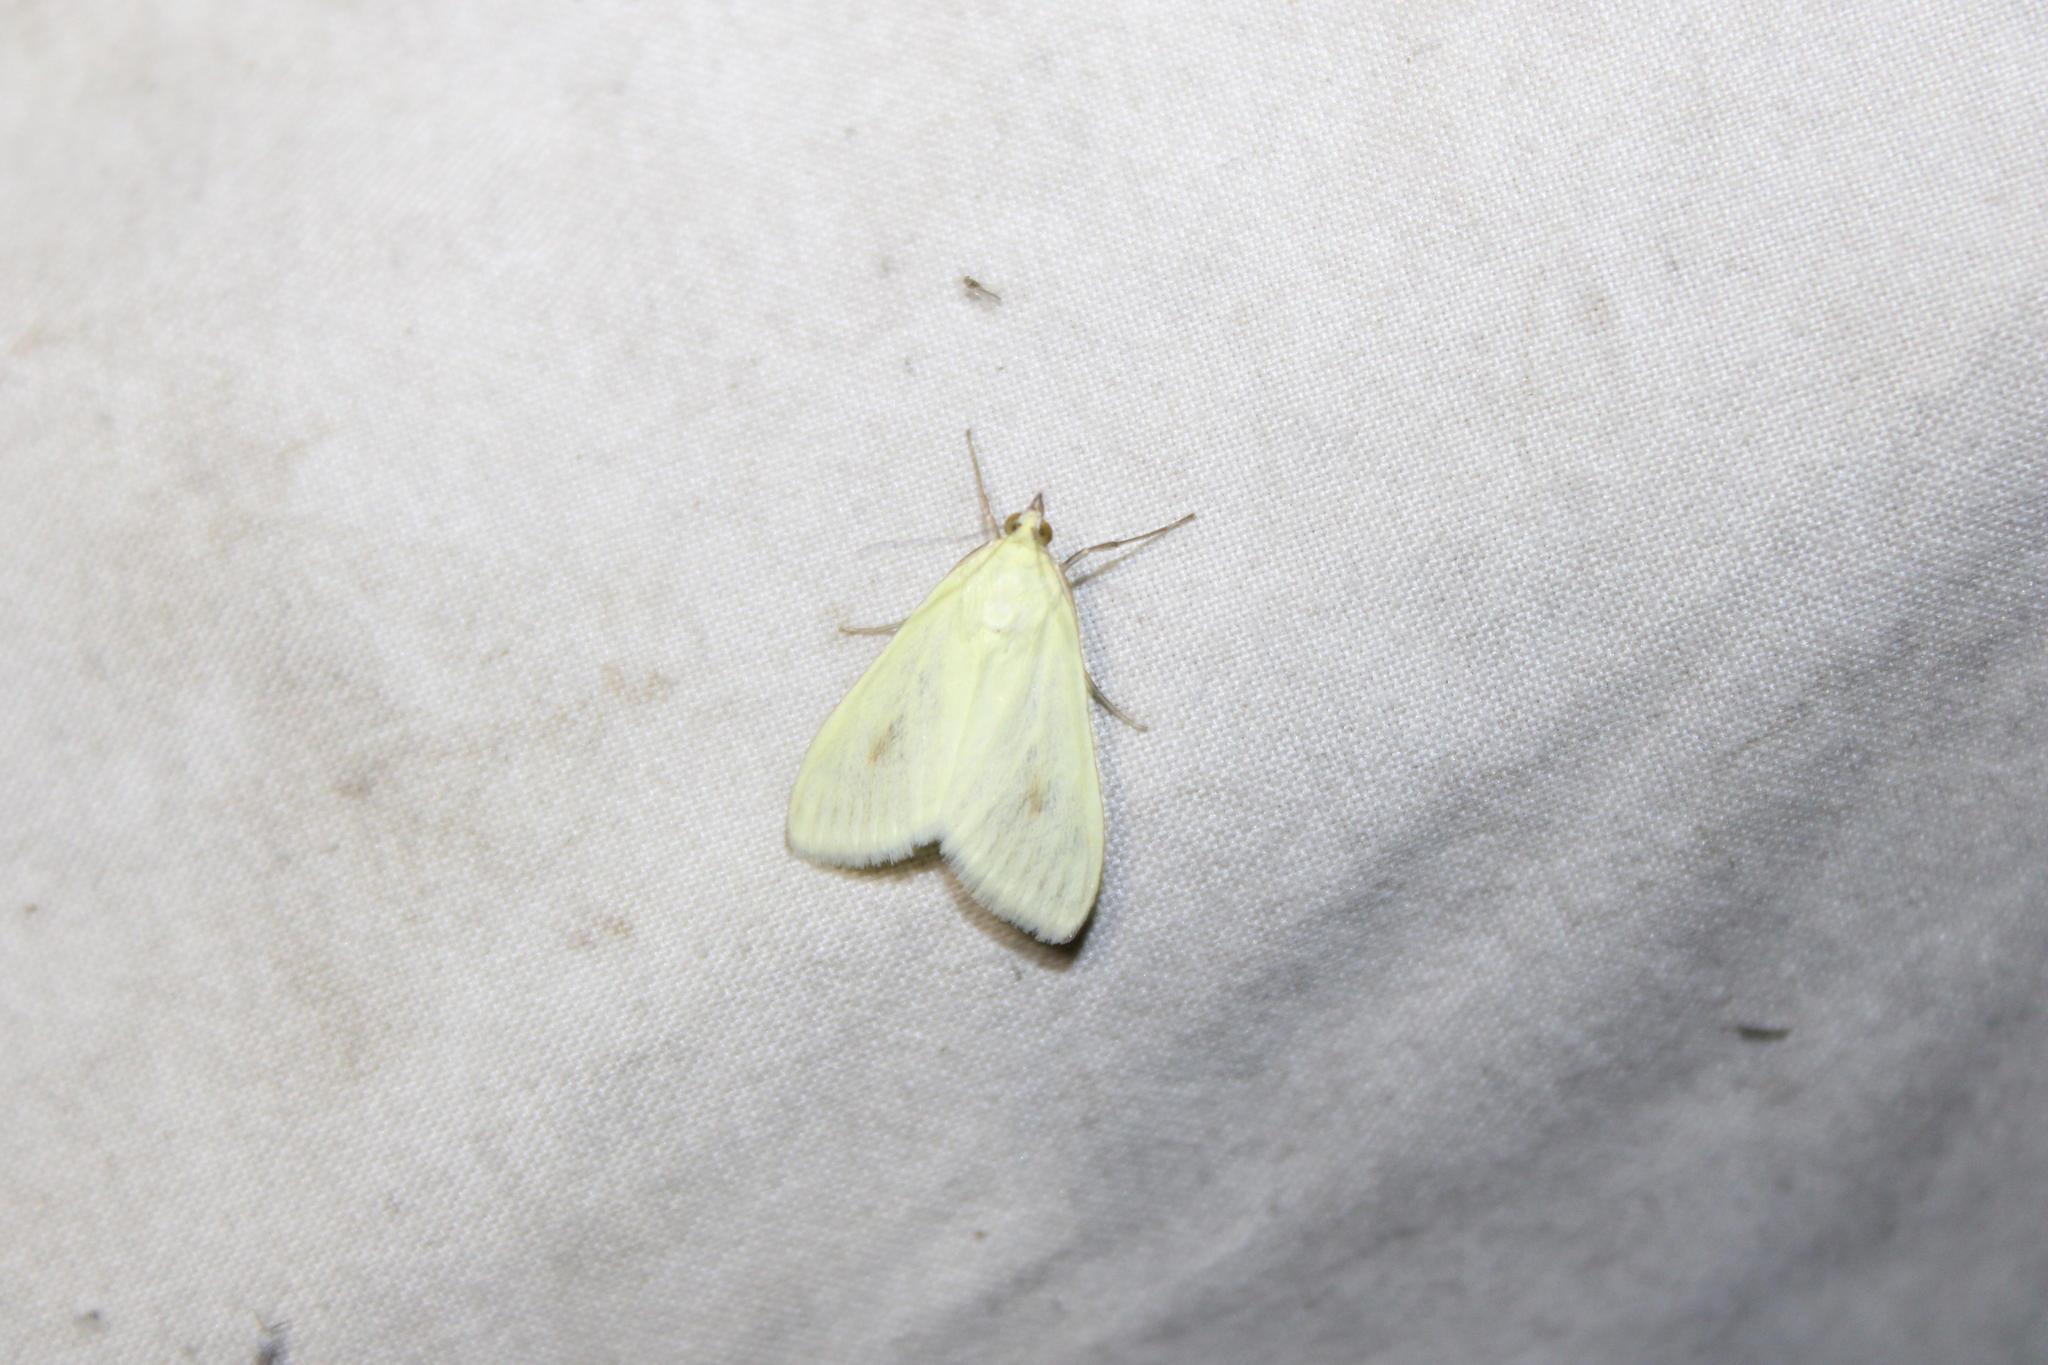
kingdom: Animalia
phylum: Arthropoda
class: Insecta
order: Lepidoptera
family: Crambidae
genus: Sitochroa
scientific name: Sitochroa palealis
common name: Greenish-yellow sitochroa moth
